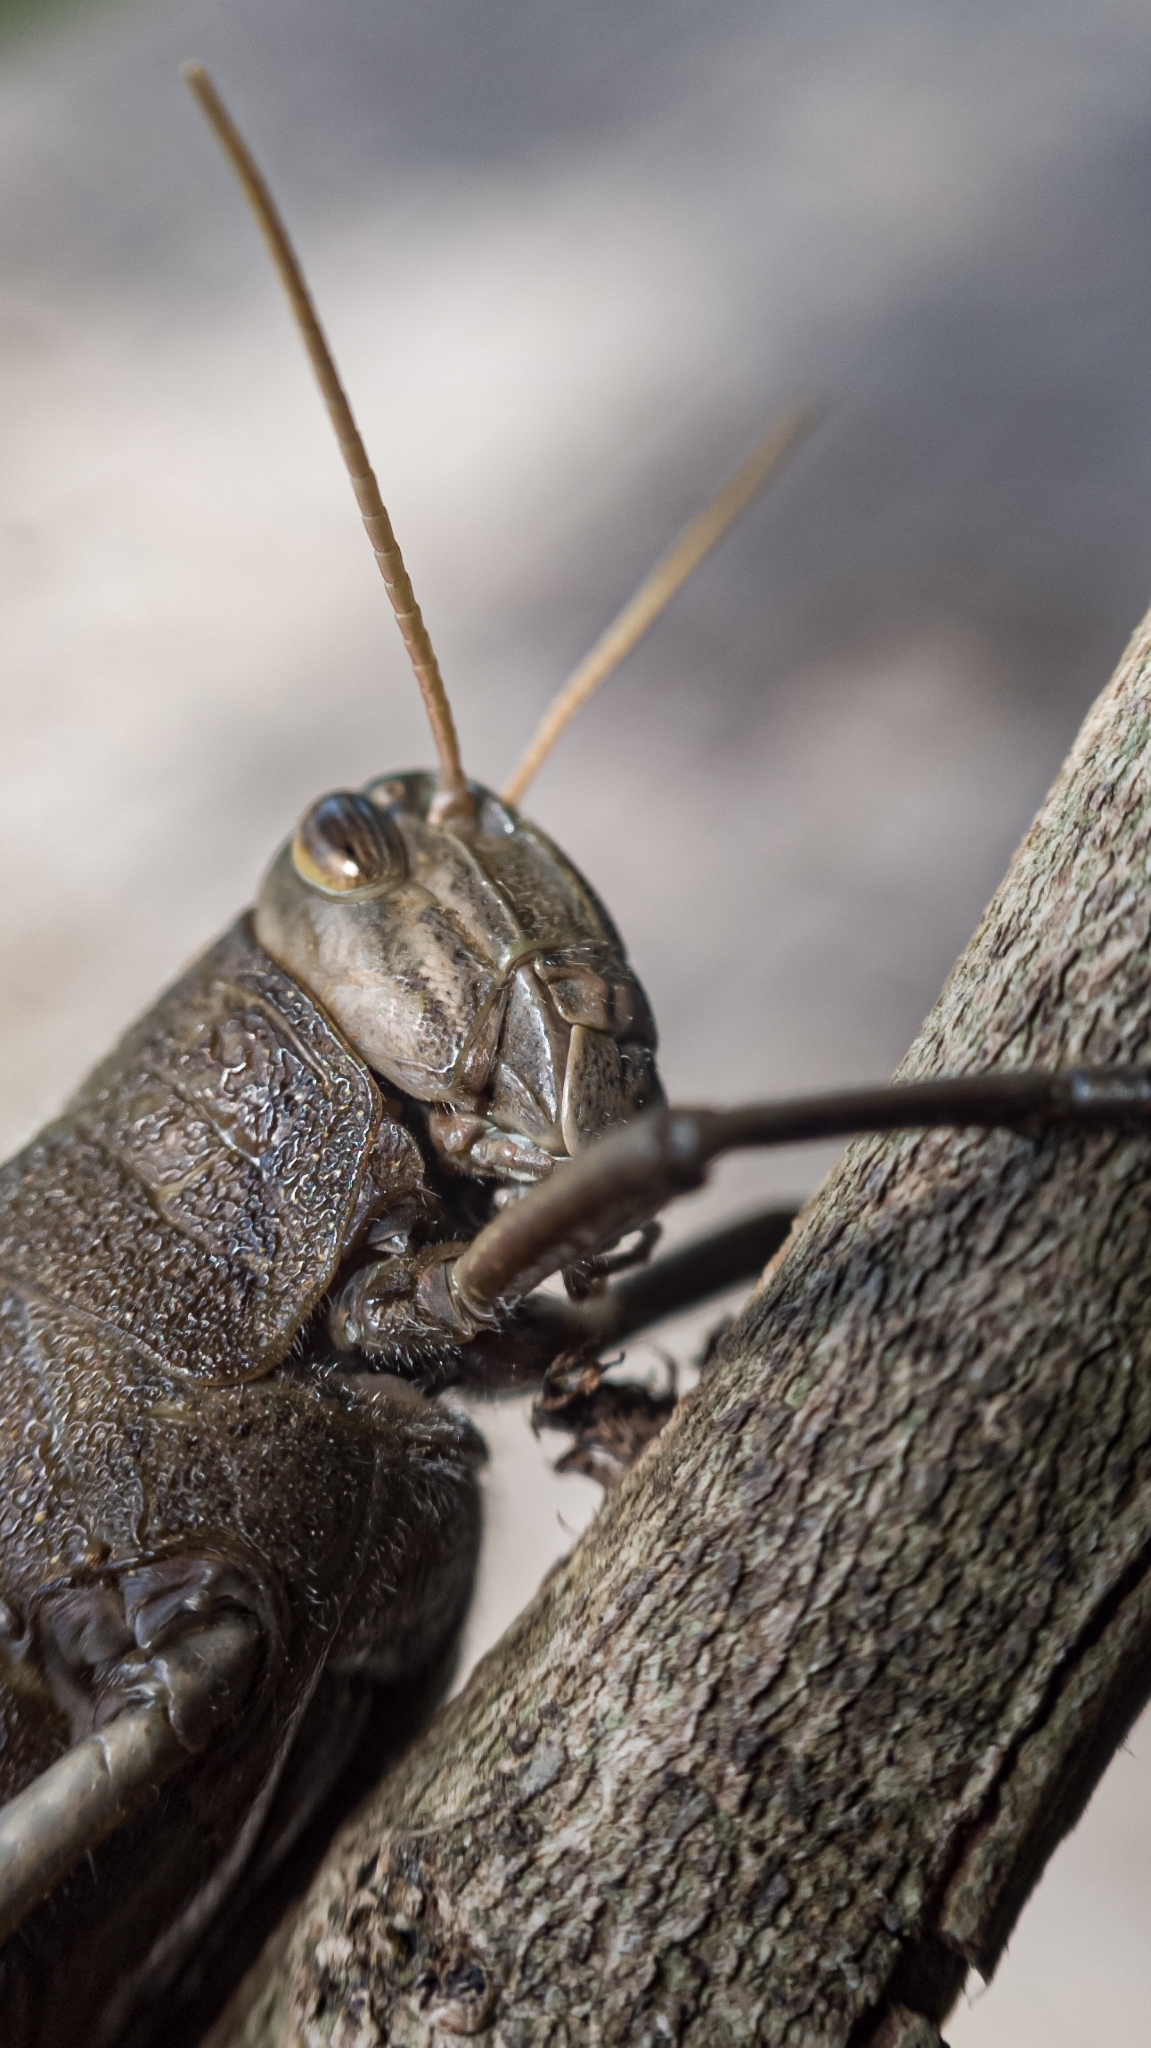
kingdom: Animalia
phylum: Arthropoda
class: Insecta
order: Orthoptera
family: Acrididae
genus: Schistocerca
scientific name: Schistocerca flavofasciata
